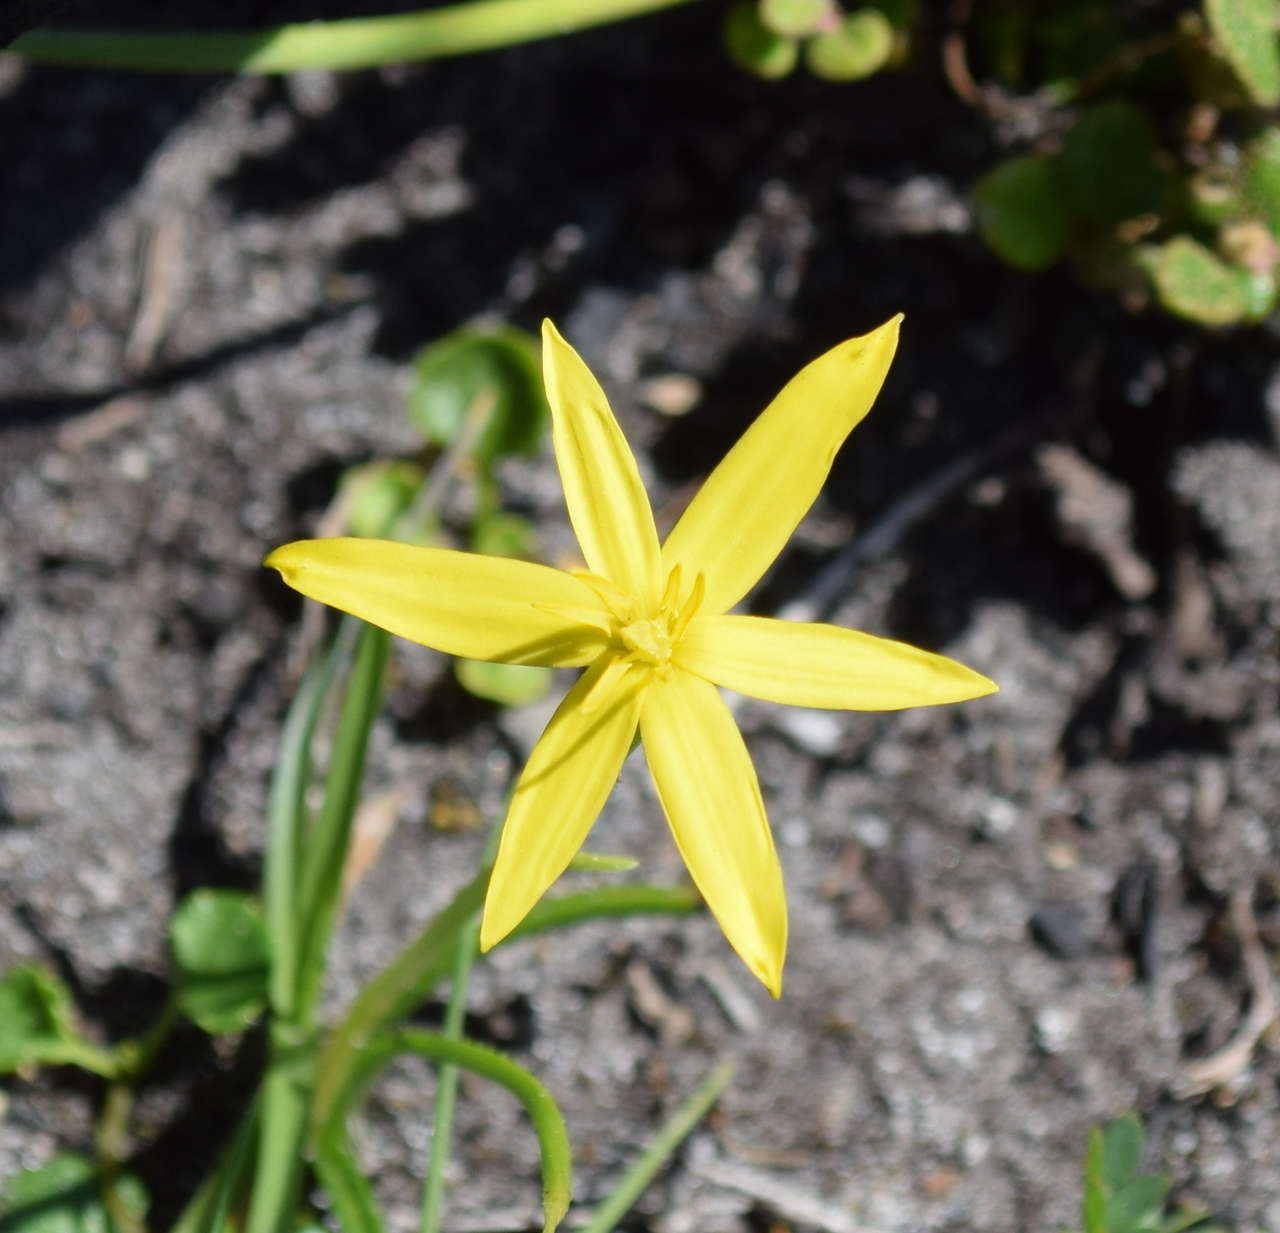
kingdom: Plantae
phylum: Tracheophyta
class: Liliopsida
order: Asparagales
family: Hypoxidaceae
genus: Pauridia
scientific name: Pauridia vaginata
